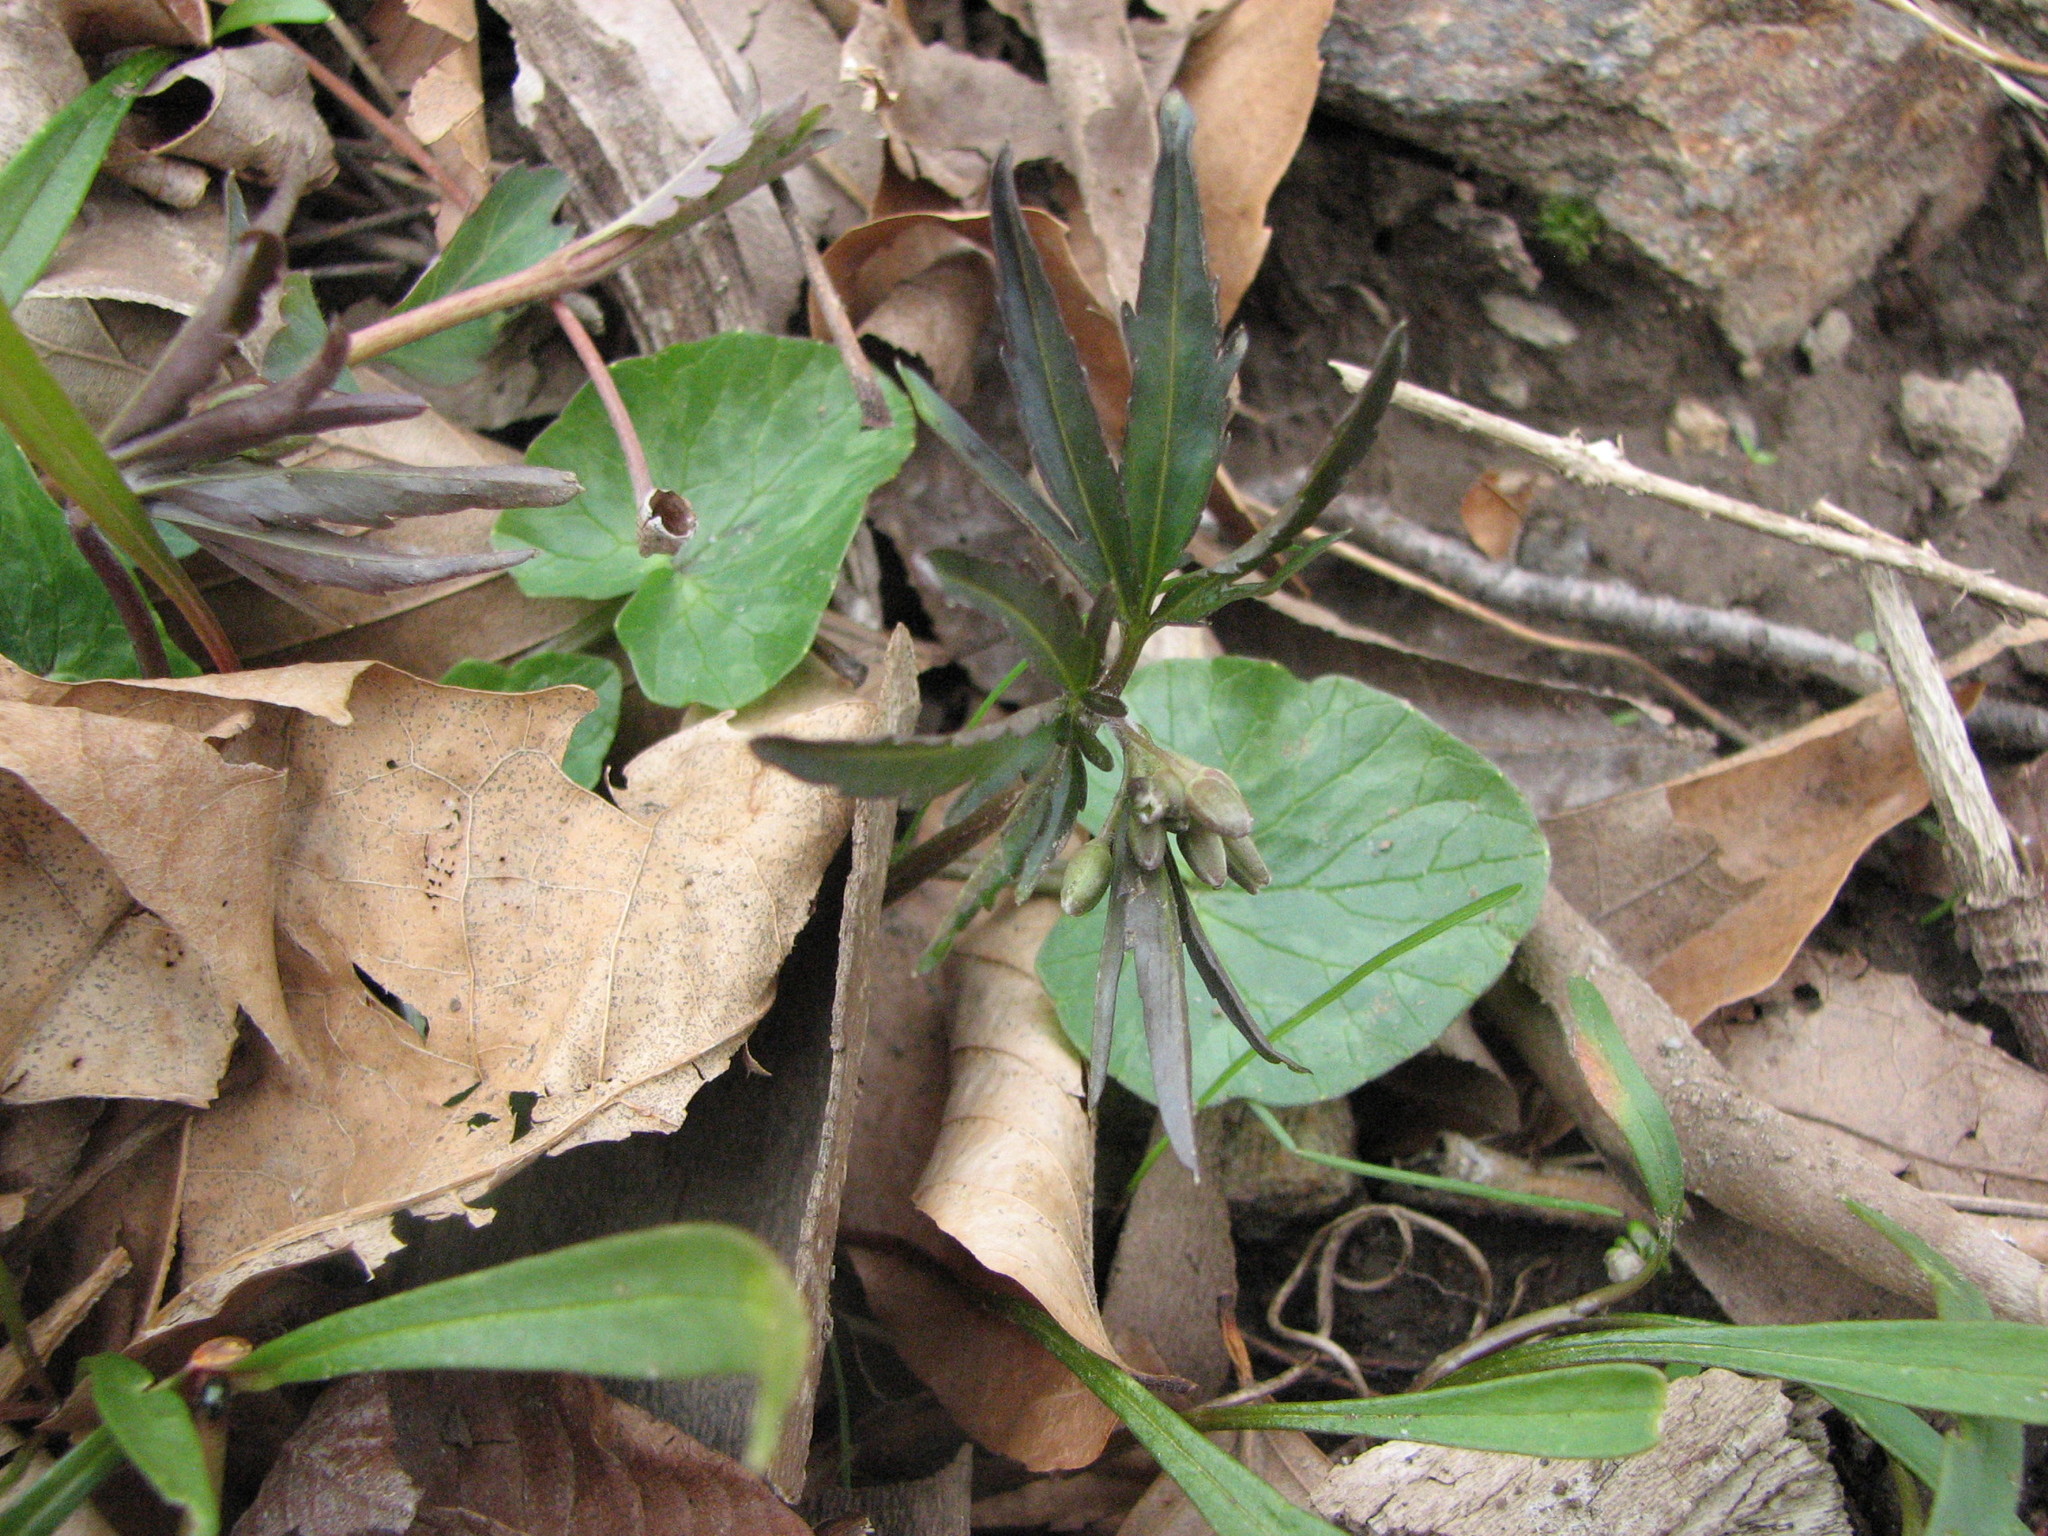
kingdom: Plantae
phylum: Tracheophyta
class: Magnoliopsida
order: Brassicales
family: Brassicaceae
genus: Cardamine
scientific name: Cardamine concatenata
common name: Cut-leaf toothcup
